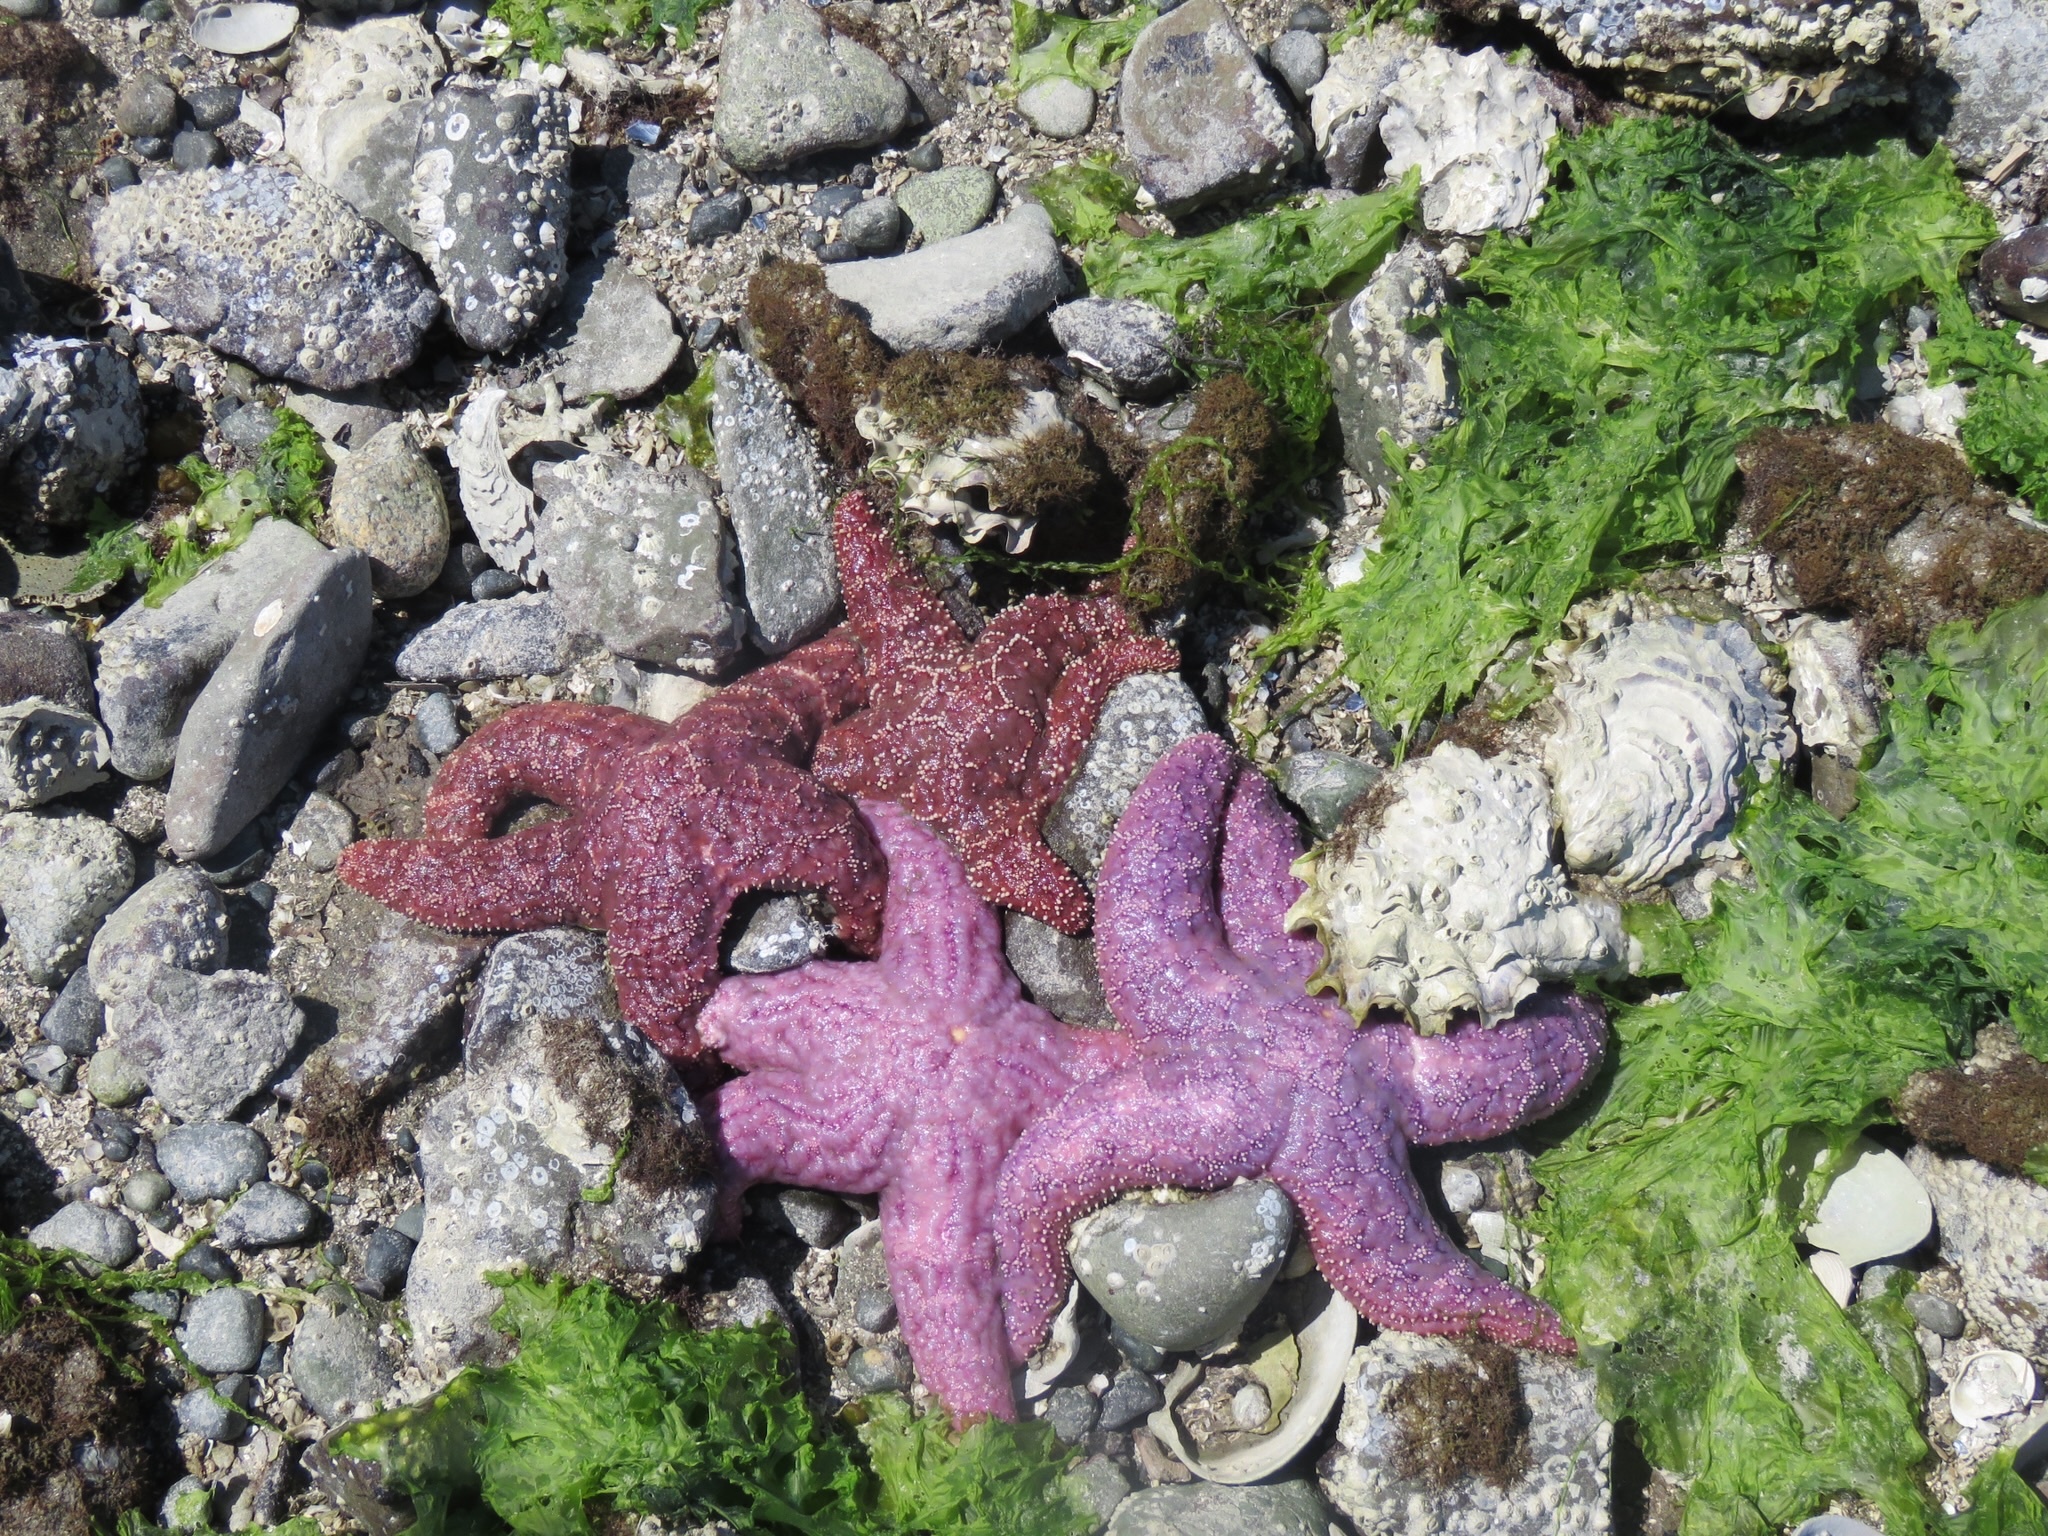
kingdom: Animalia
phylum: Echinodermata
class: Asteroidea
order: Forcipulatida
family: Asteriidae
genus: Pisaster
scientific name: Pisaster ochraceus
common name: Ochre stars
